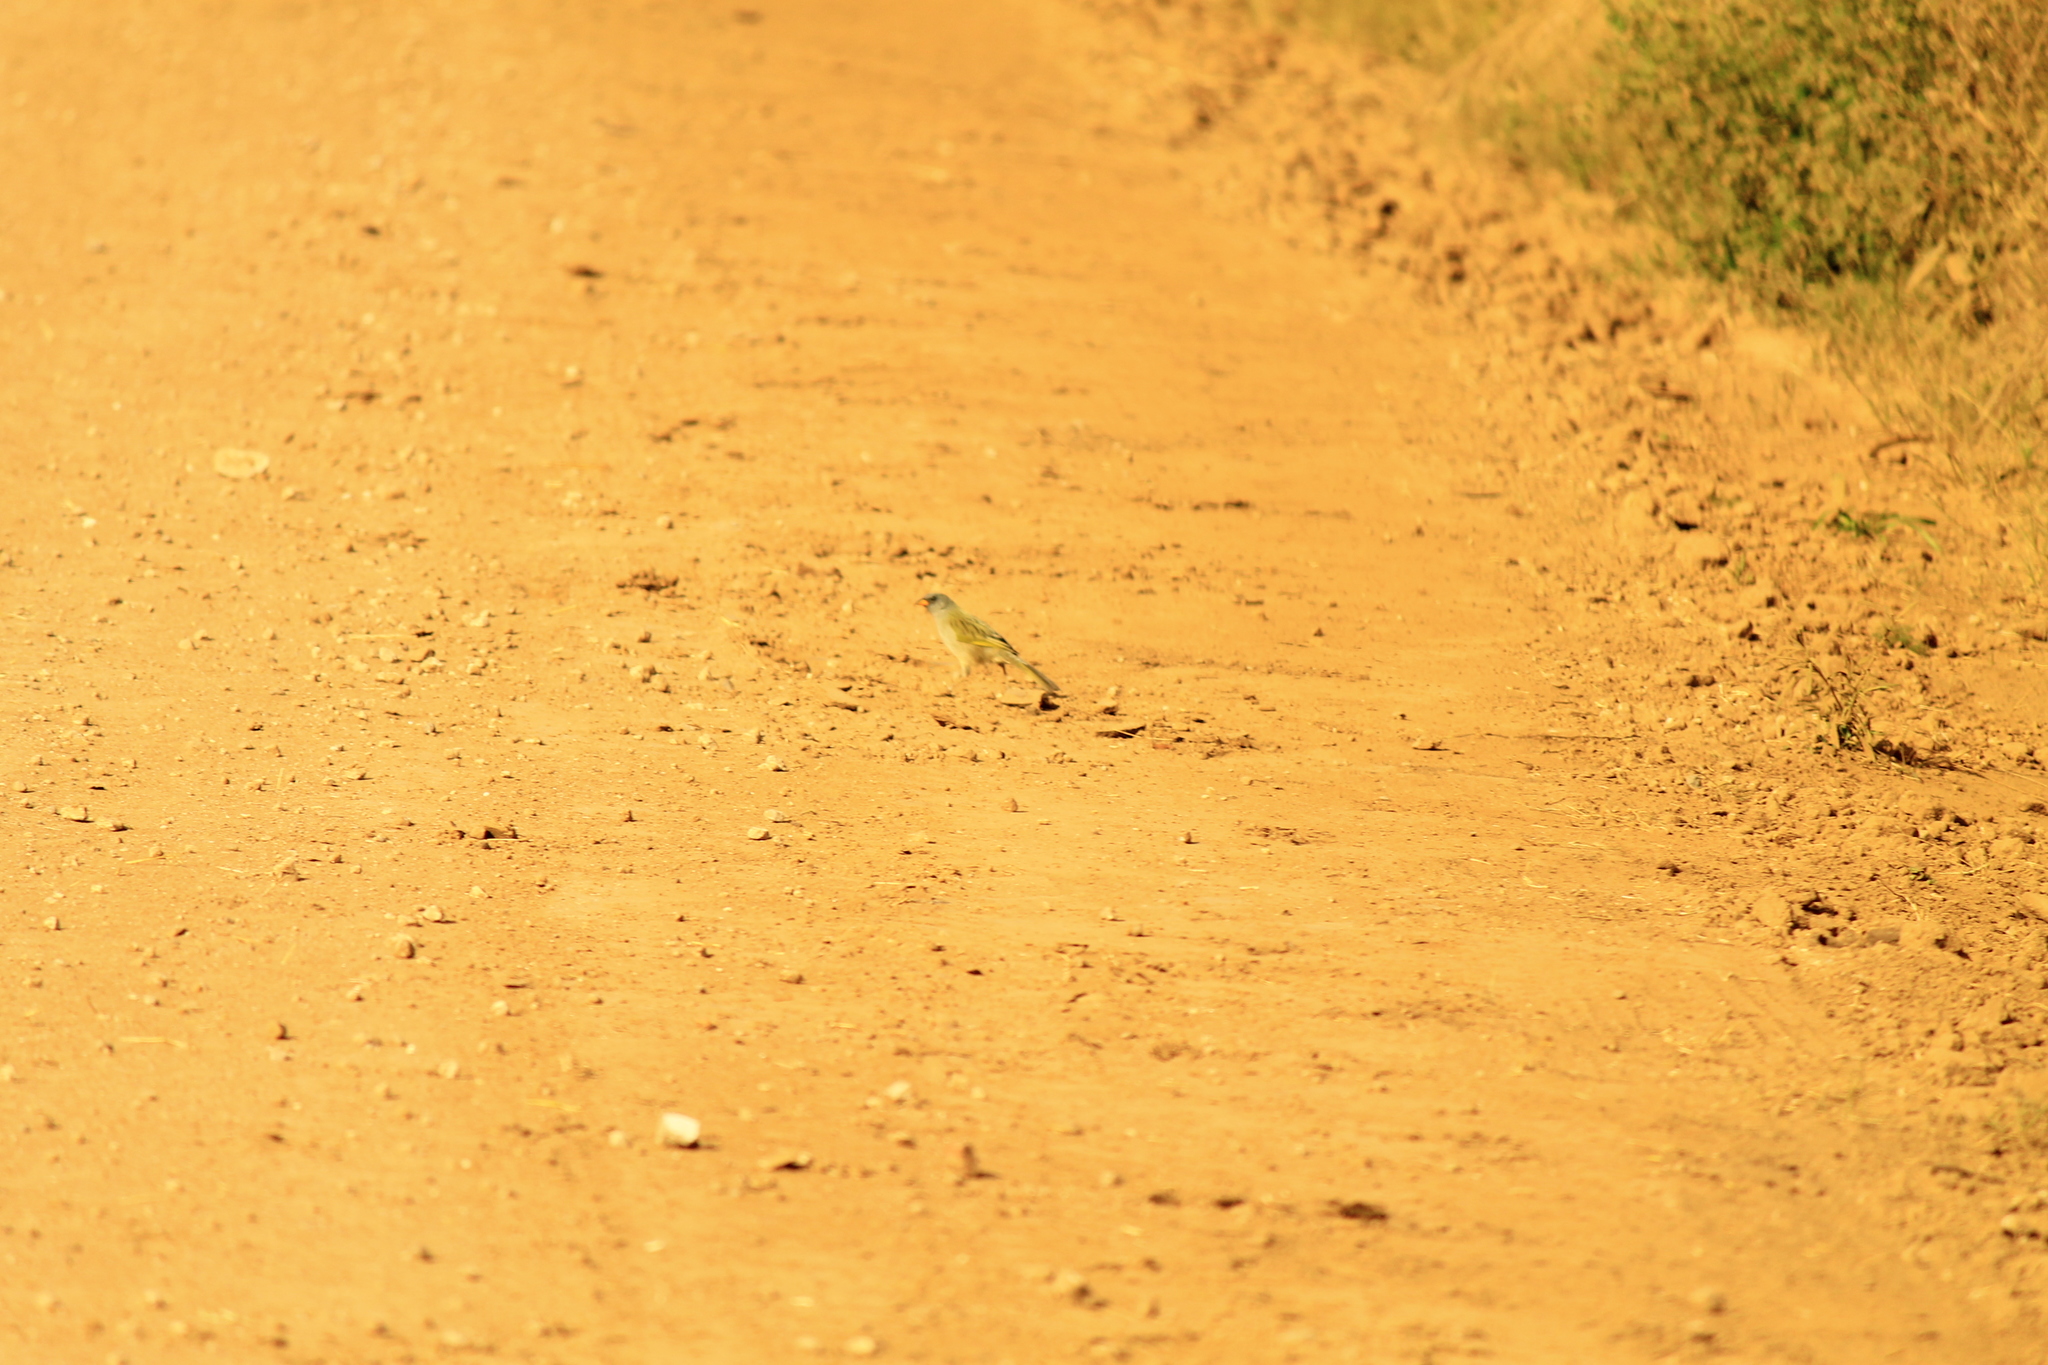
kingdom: Animalia
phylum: Chordata
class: Aves
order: Passeriformes
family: Thraupidae
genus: Embernagra
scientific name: Embernagra platensis
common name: Pampa finch
